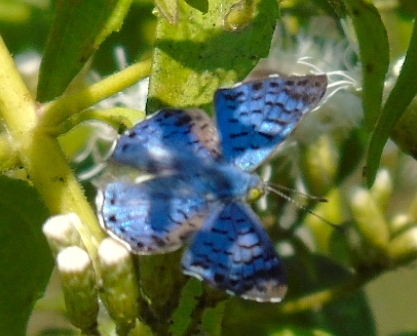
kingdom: Animalia
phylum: Arthropoda
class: Insecta
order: Lepidoptera
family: Riodinidae
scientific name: Riodinidae
